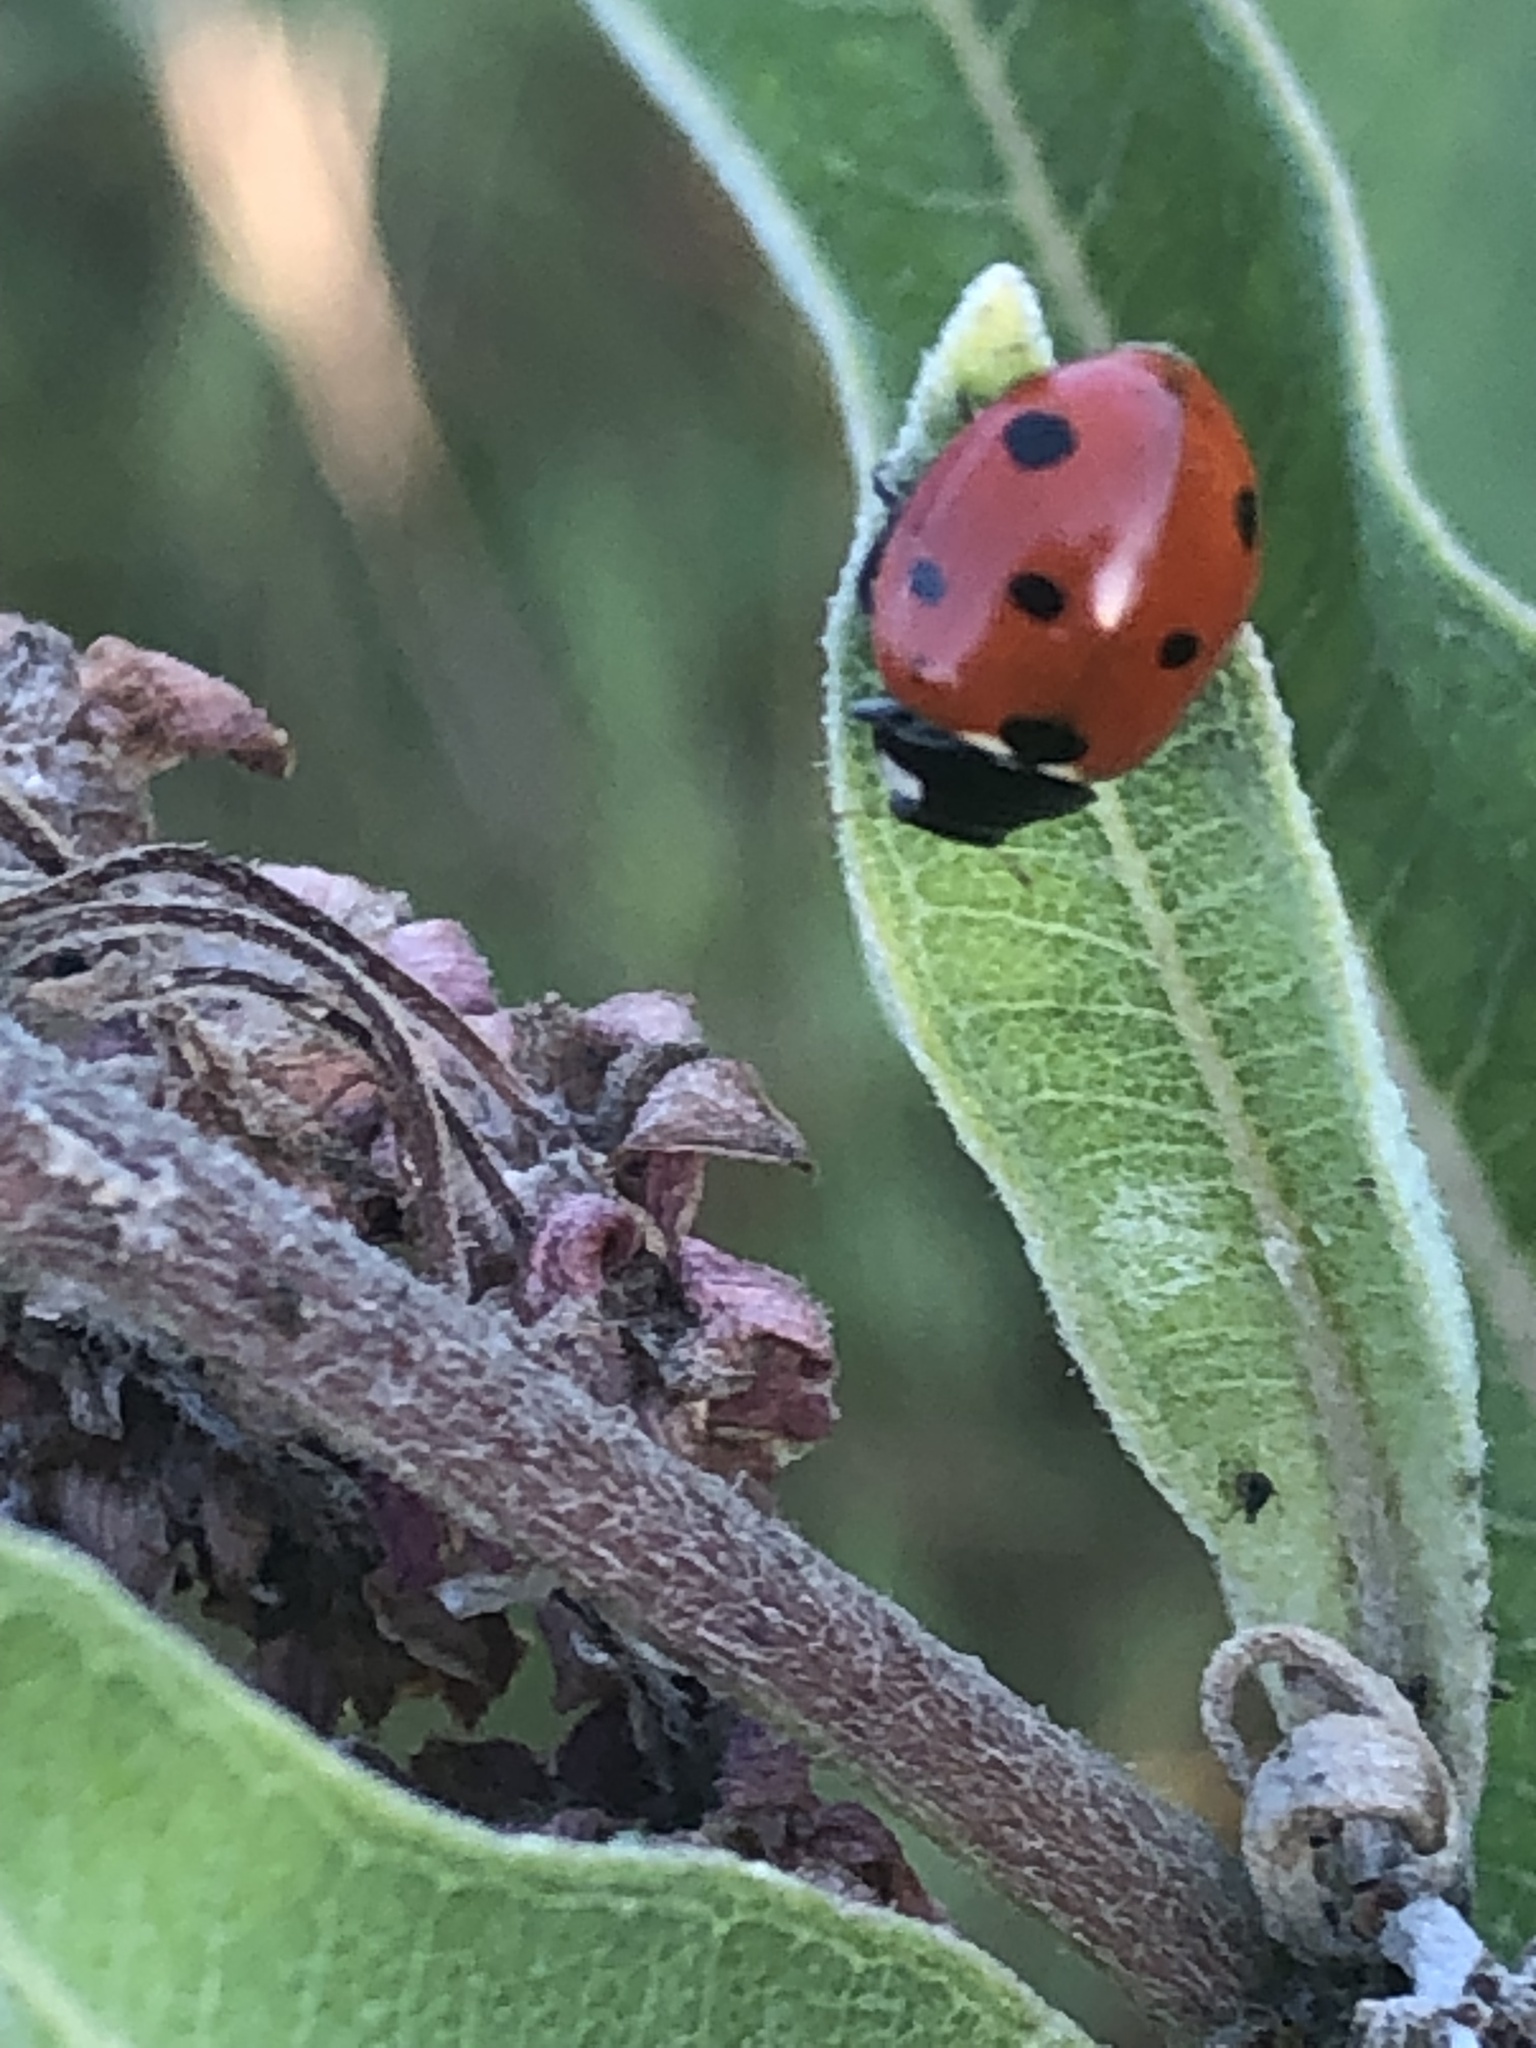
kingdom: Animalia
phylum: Arthropoda
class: Insecta
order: Coleoptera
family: Coccinellidae
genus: Coccinella
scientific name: Coccinella septempunctata
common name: Sevenspotted lady beetle
